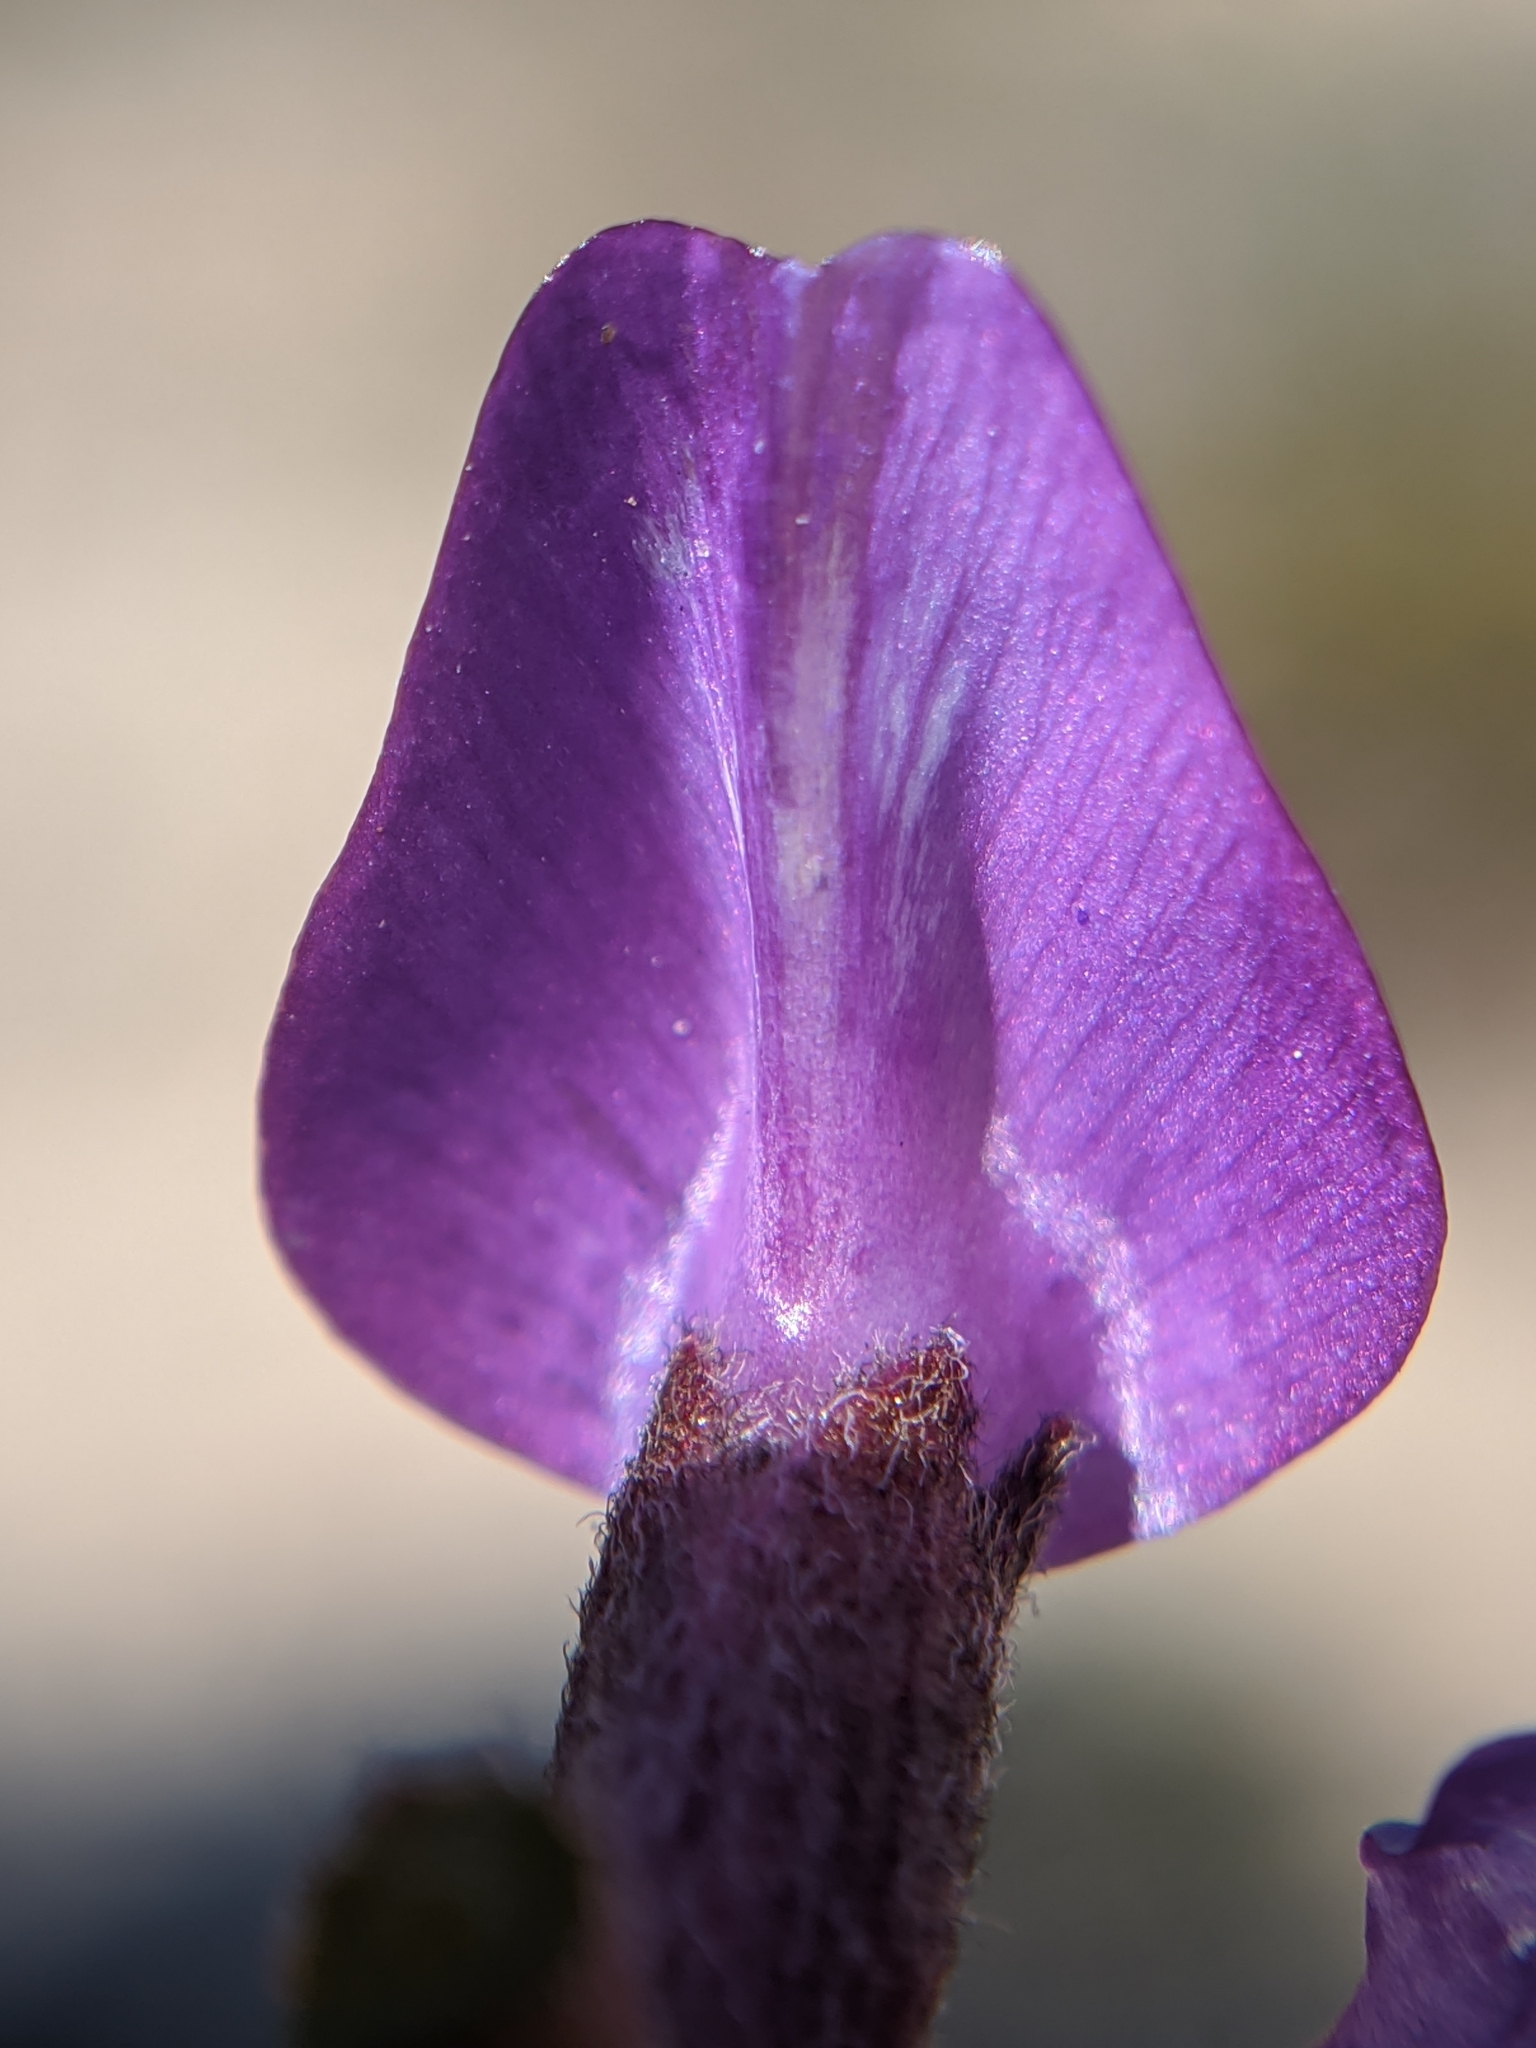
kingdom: Plantae
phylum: Tracheophyta
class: Magnoliopsida
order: Fabales
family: Fabaceae
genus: Astragalus
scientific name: Astragalus lentiginosus
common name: Freckled milkvetch
